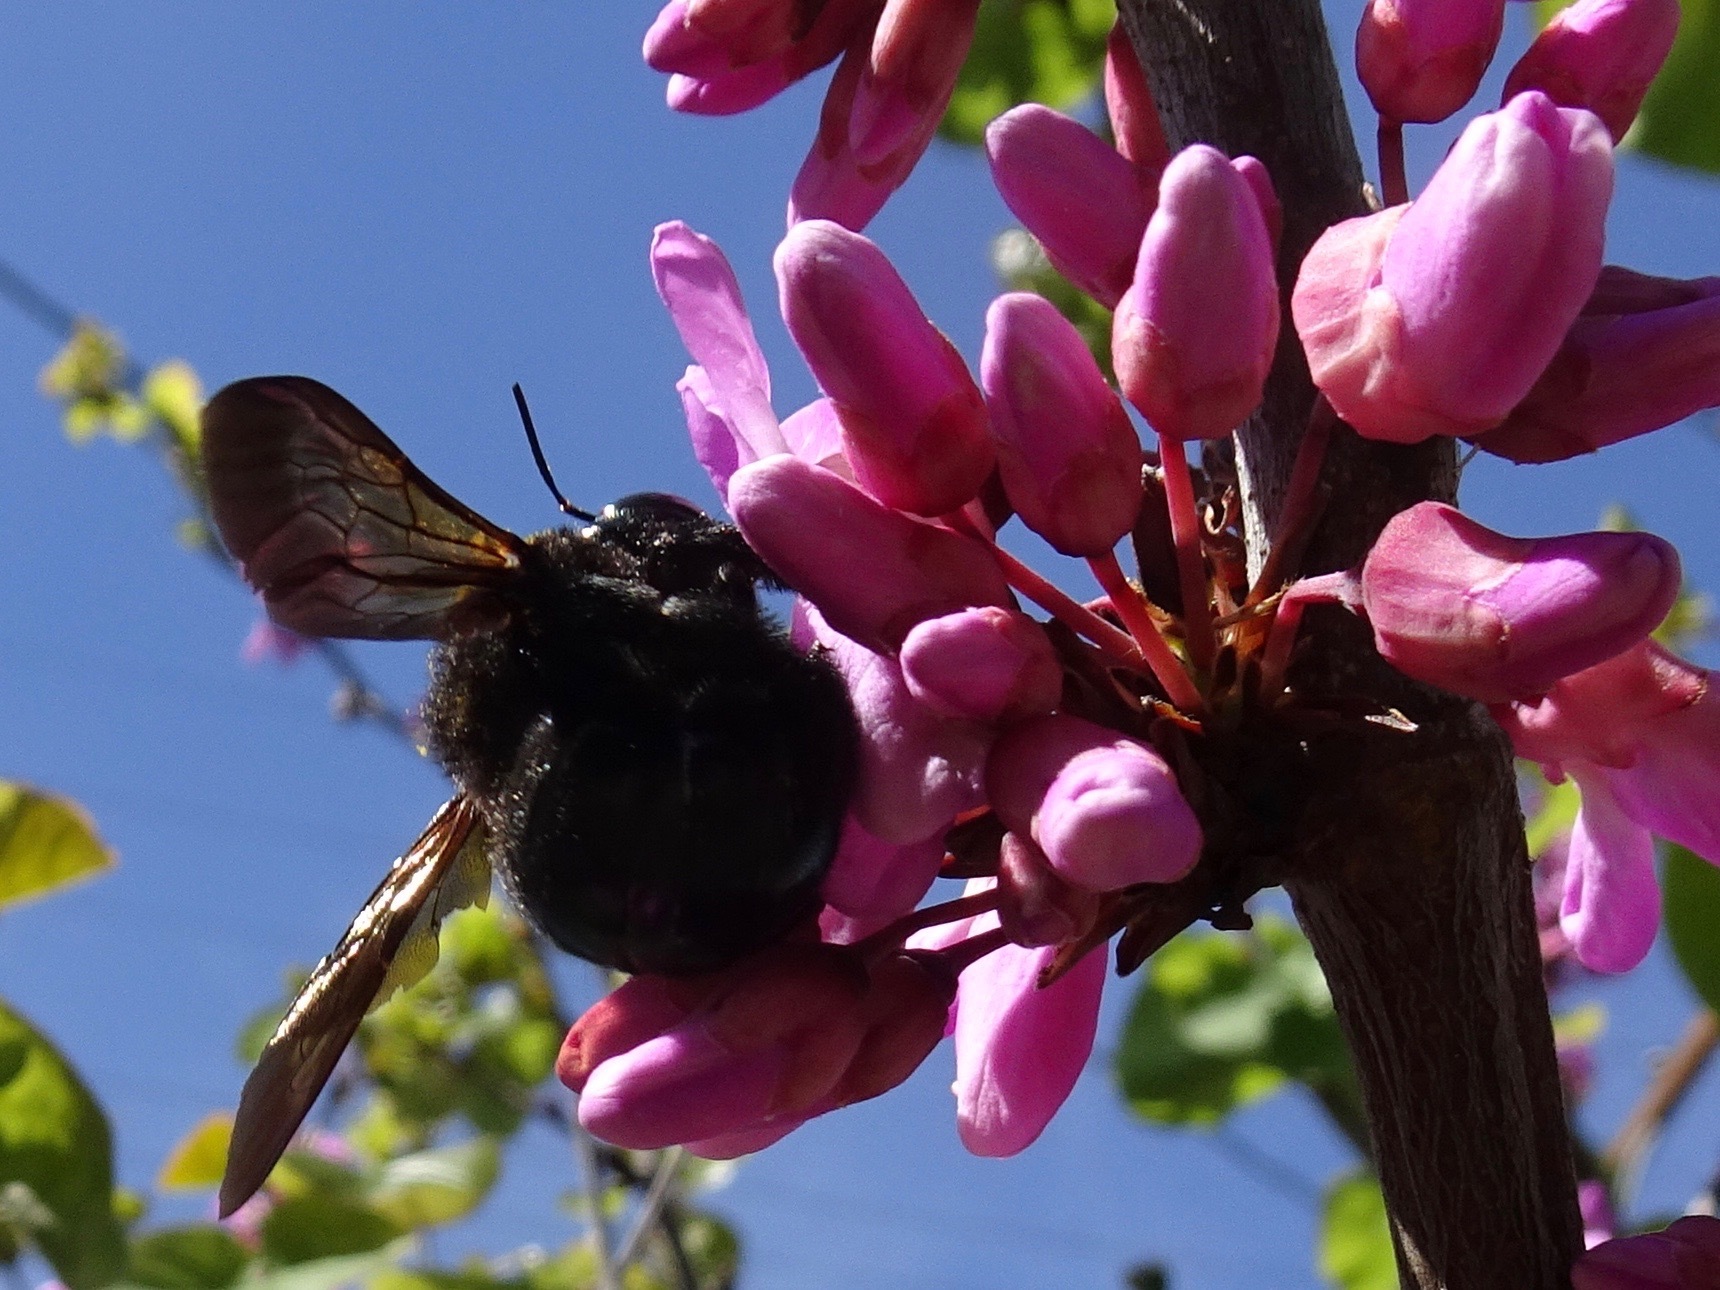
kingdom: Animalia
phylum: Arthropoda
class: Insecta
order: Hymenoptera
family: Apidae
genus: Xylocopa
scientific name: Xylocopa sonorina
